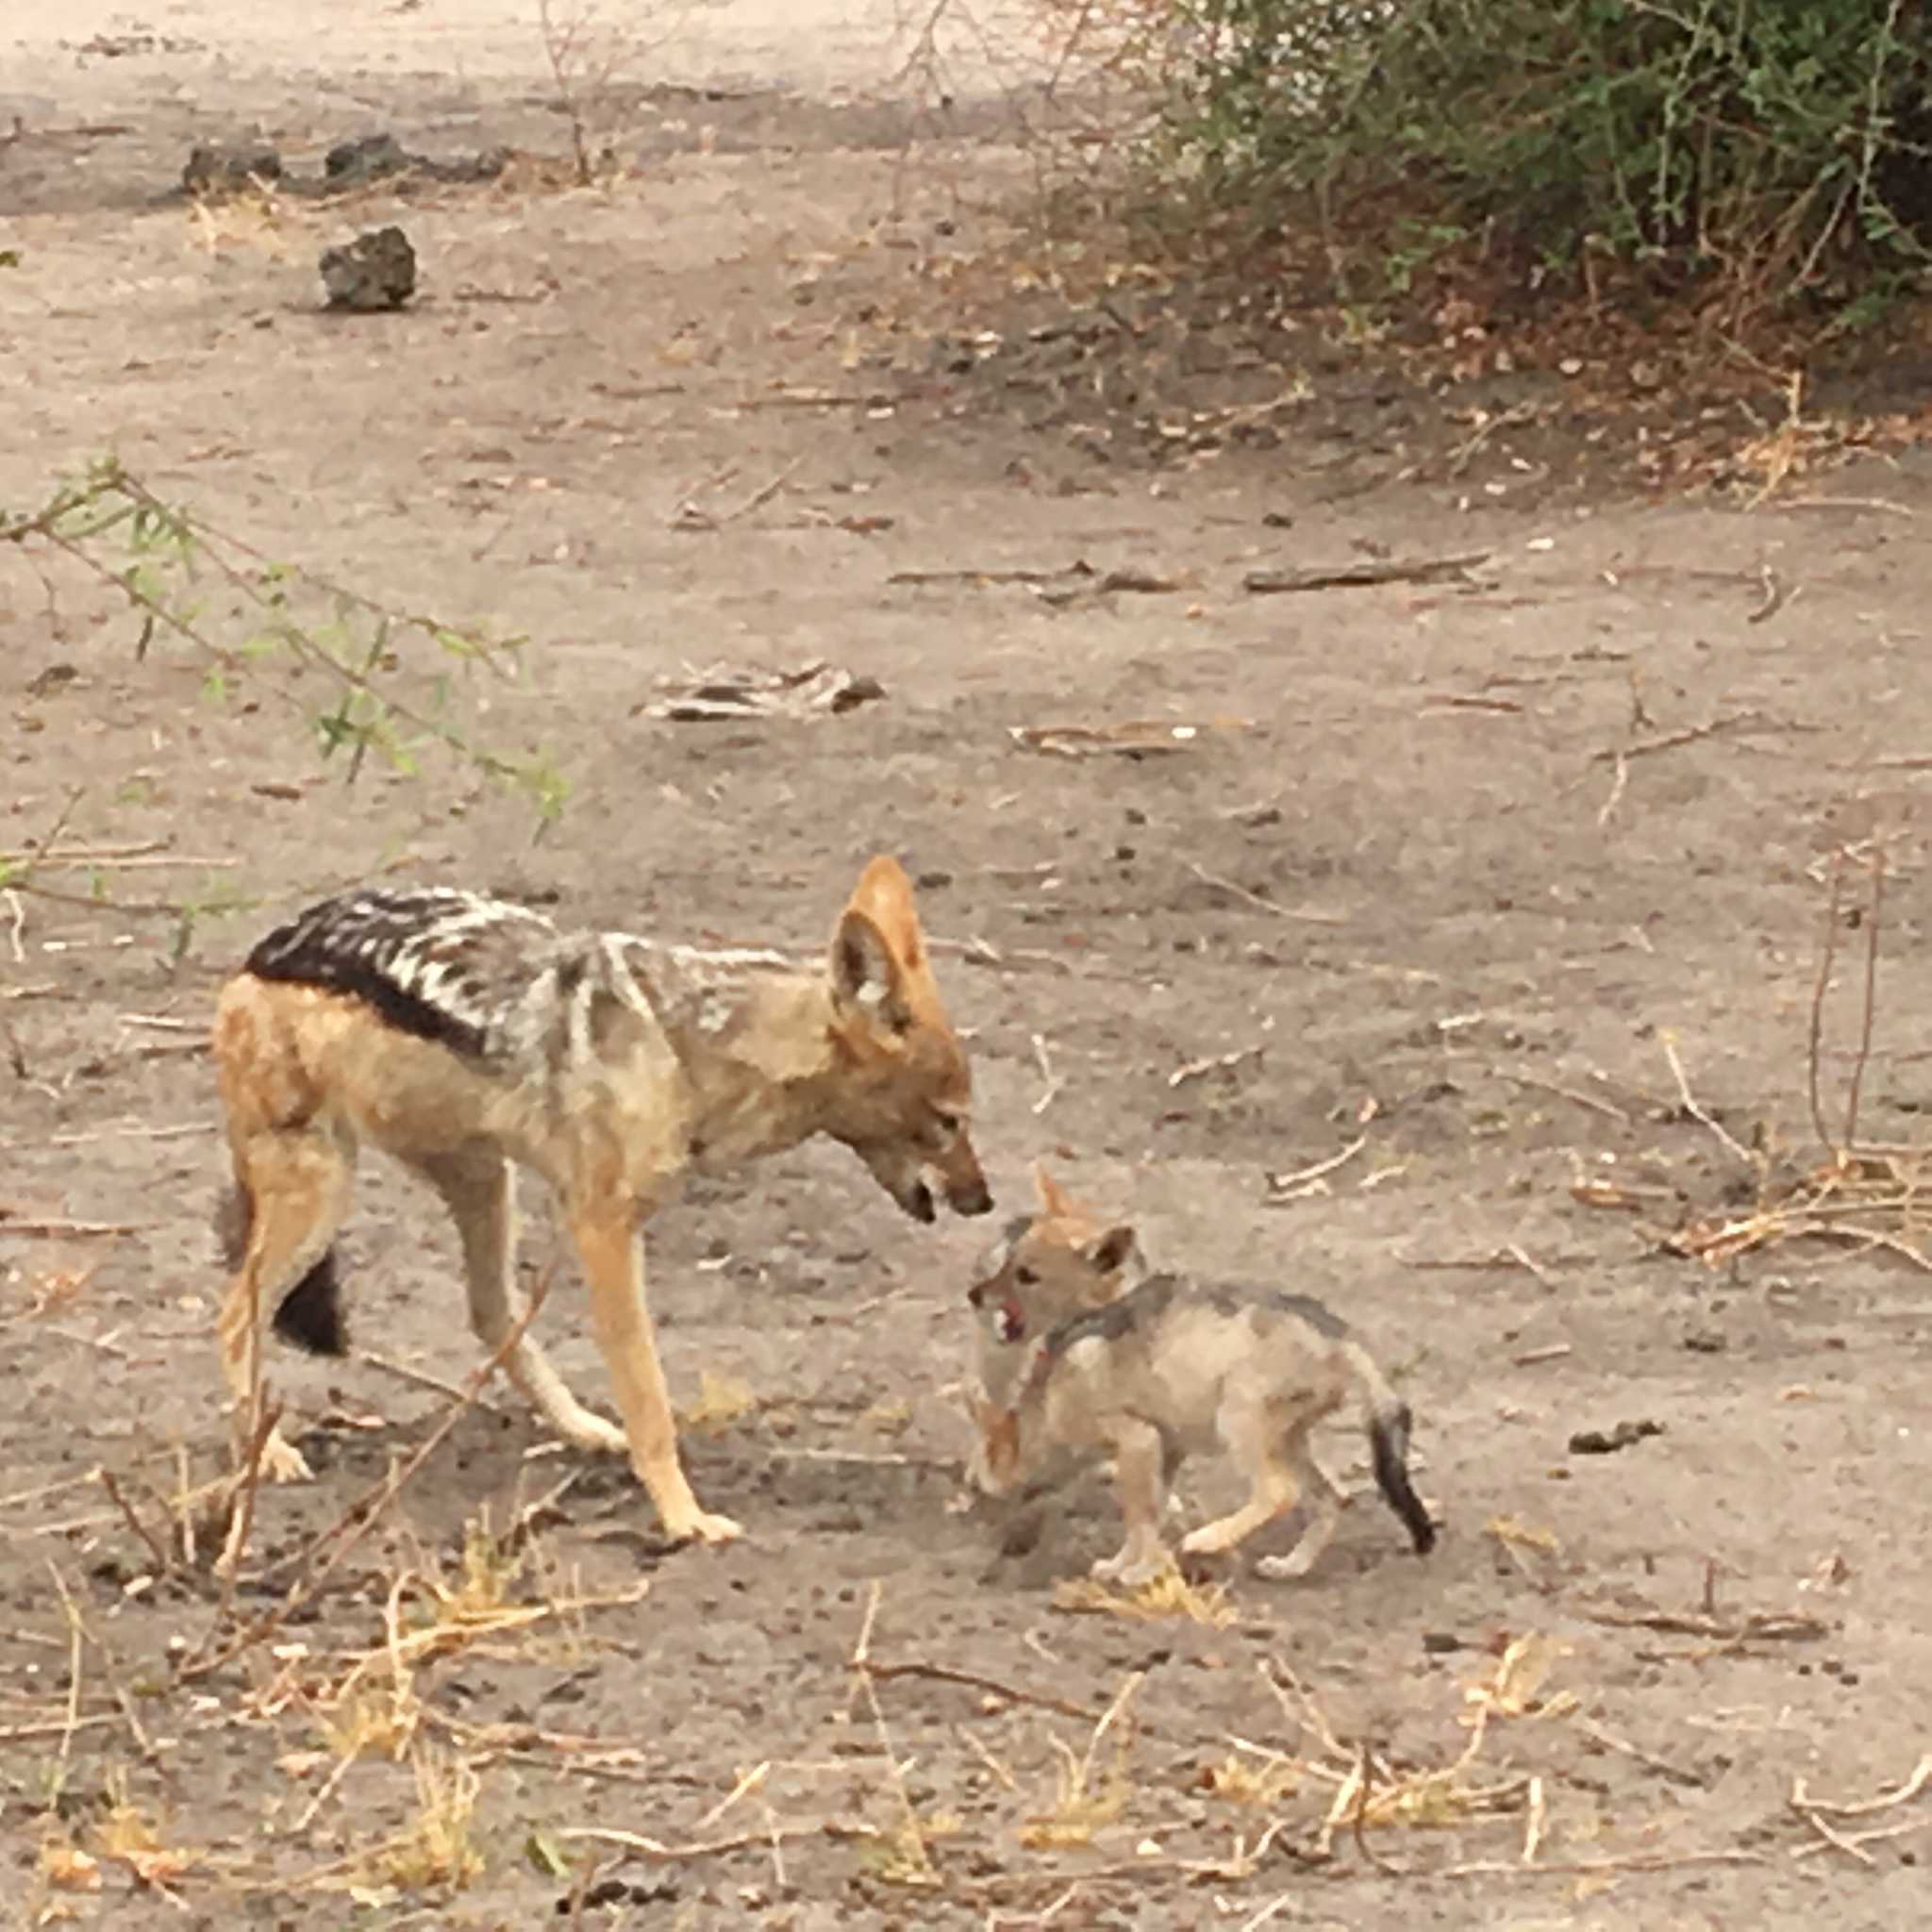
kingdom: Animalia
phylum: Chordata
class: Mammalia
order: Carnivora
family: Canidae
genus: Lupulella
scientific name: Lupulella
